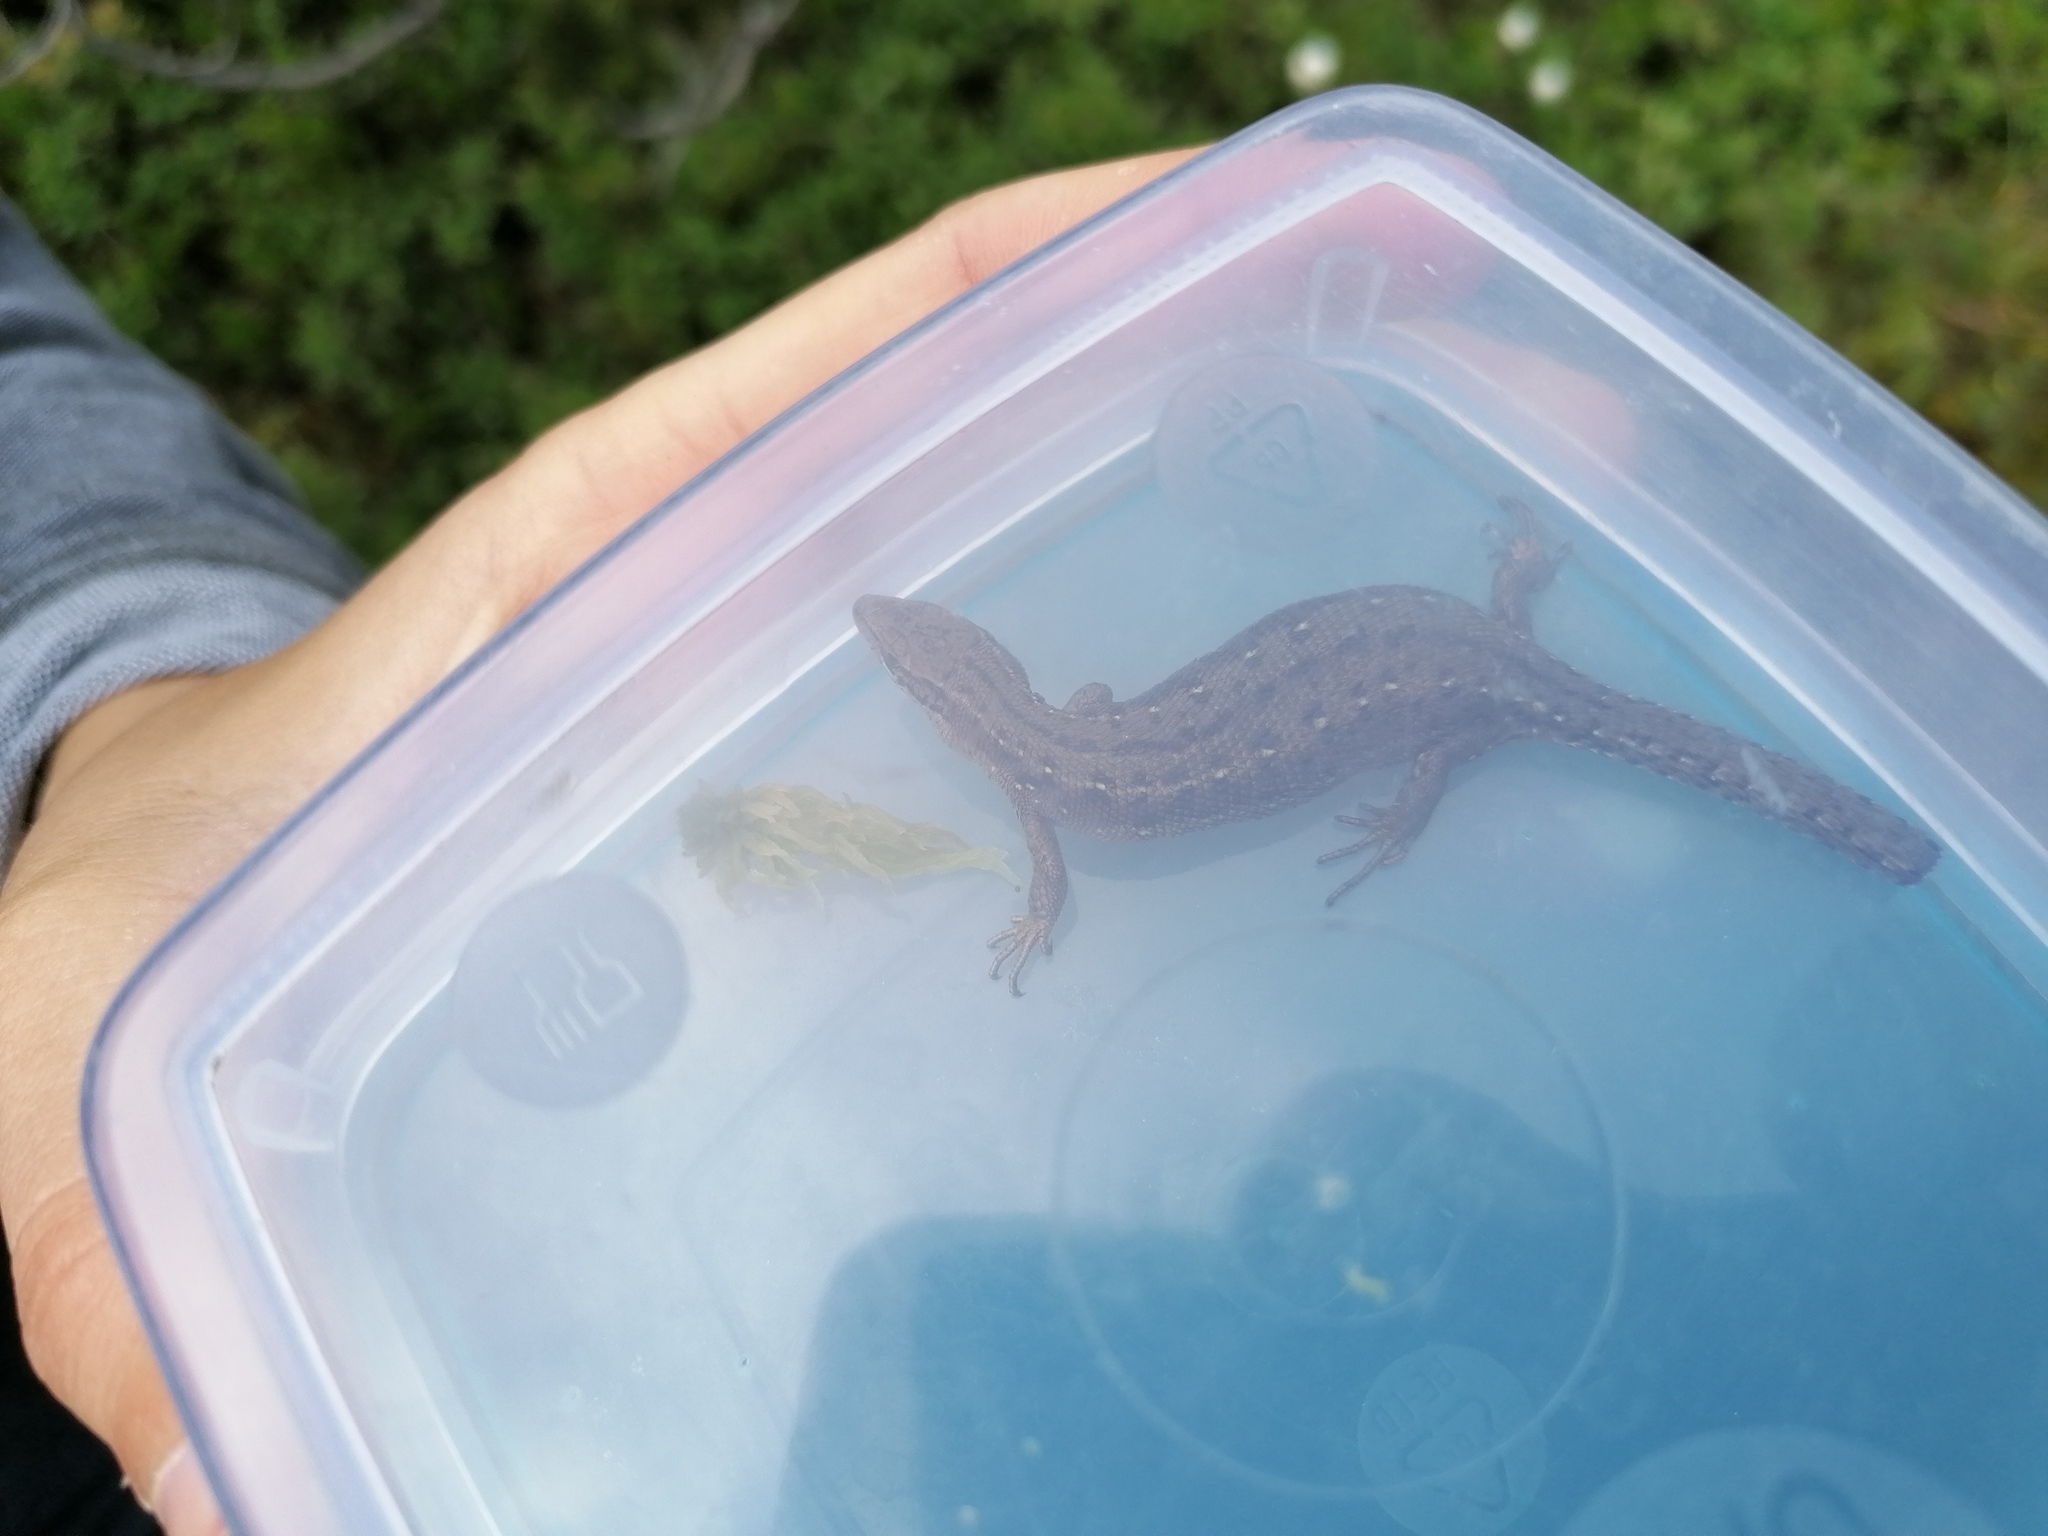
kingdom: Animalia
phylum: Chordata
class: Squamata
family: Lacertidae
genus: Zootoca
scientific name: Zootoca vivipara
